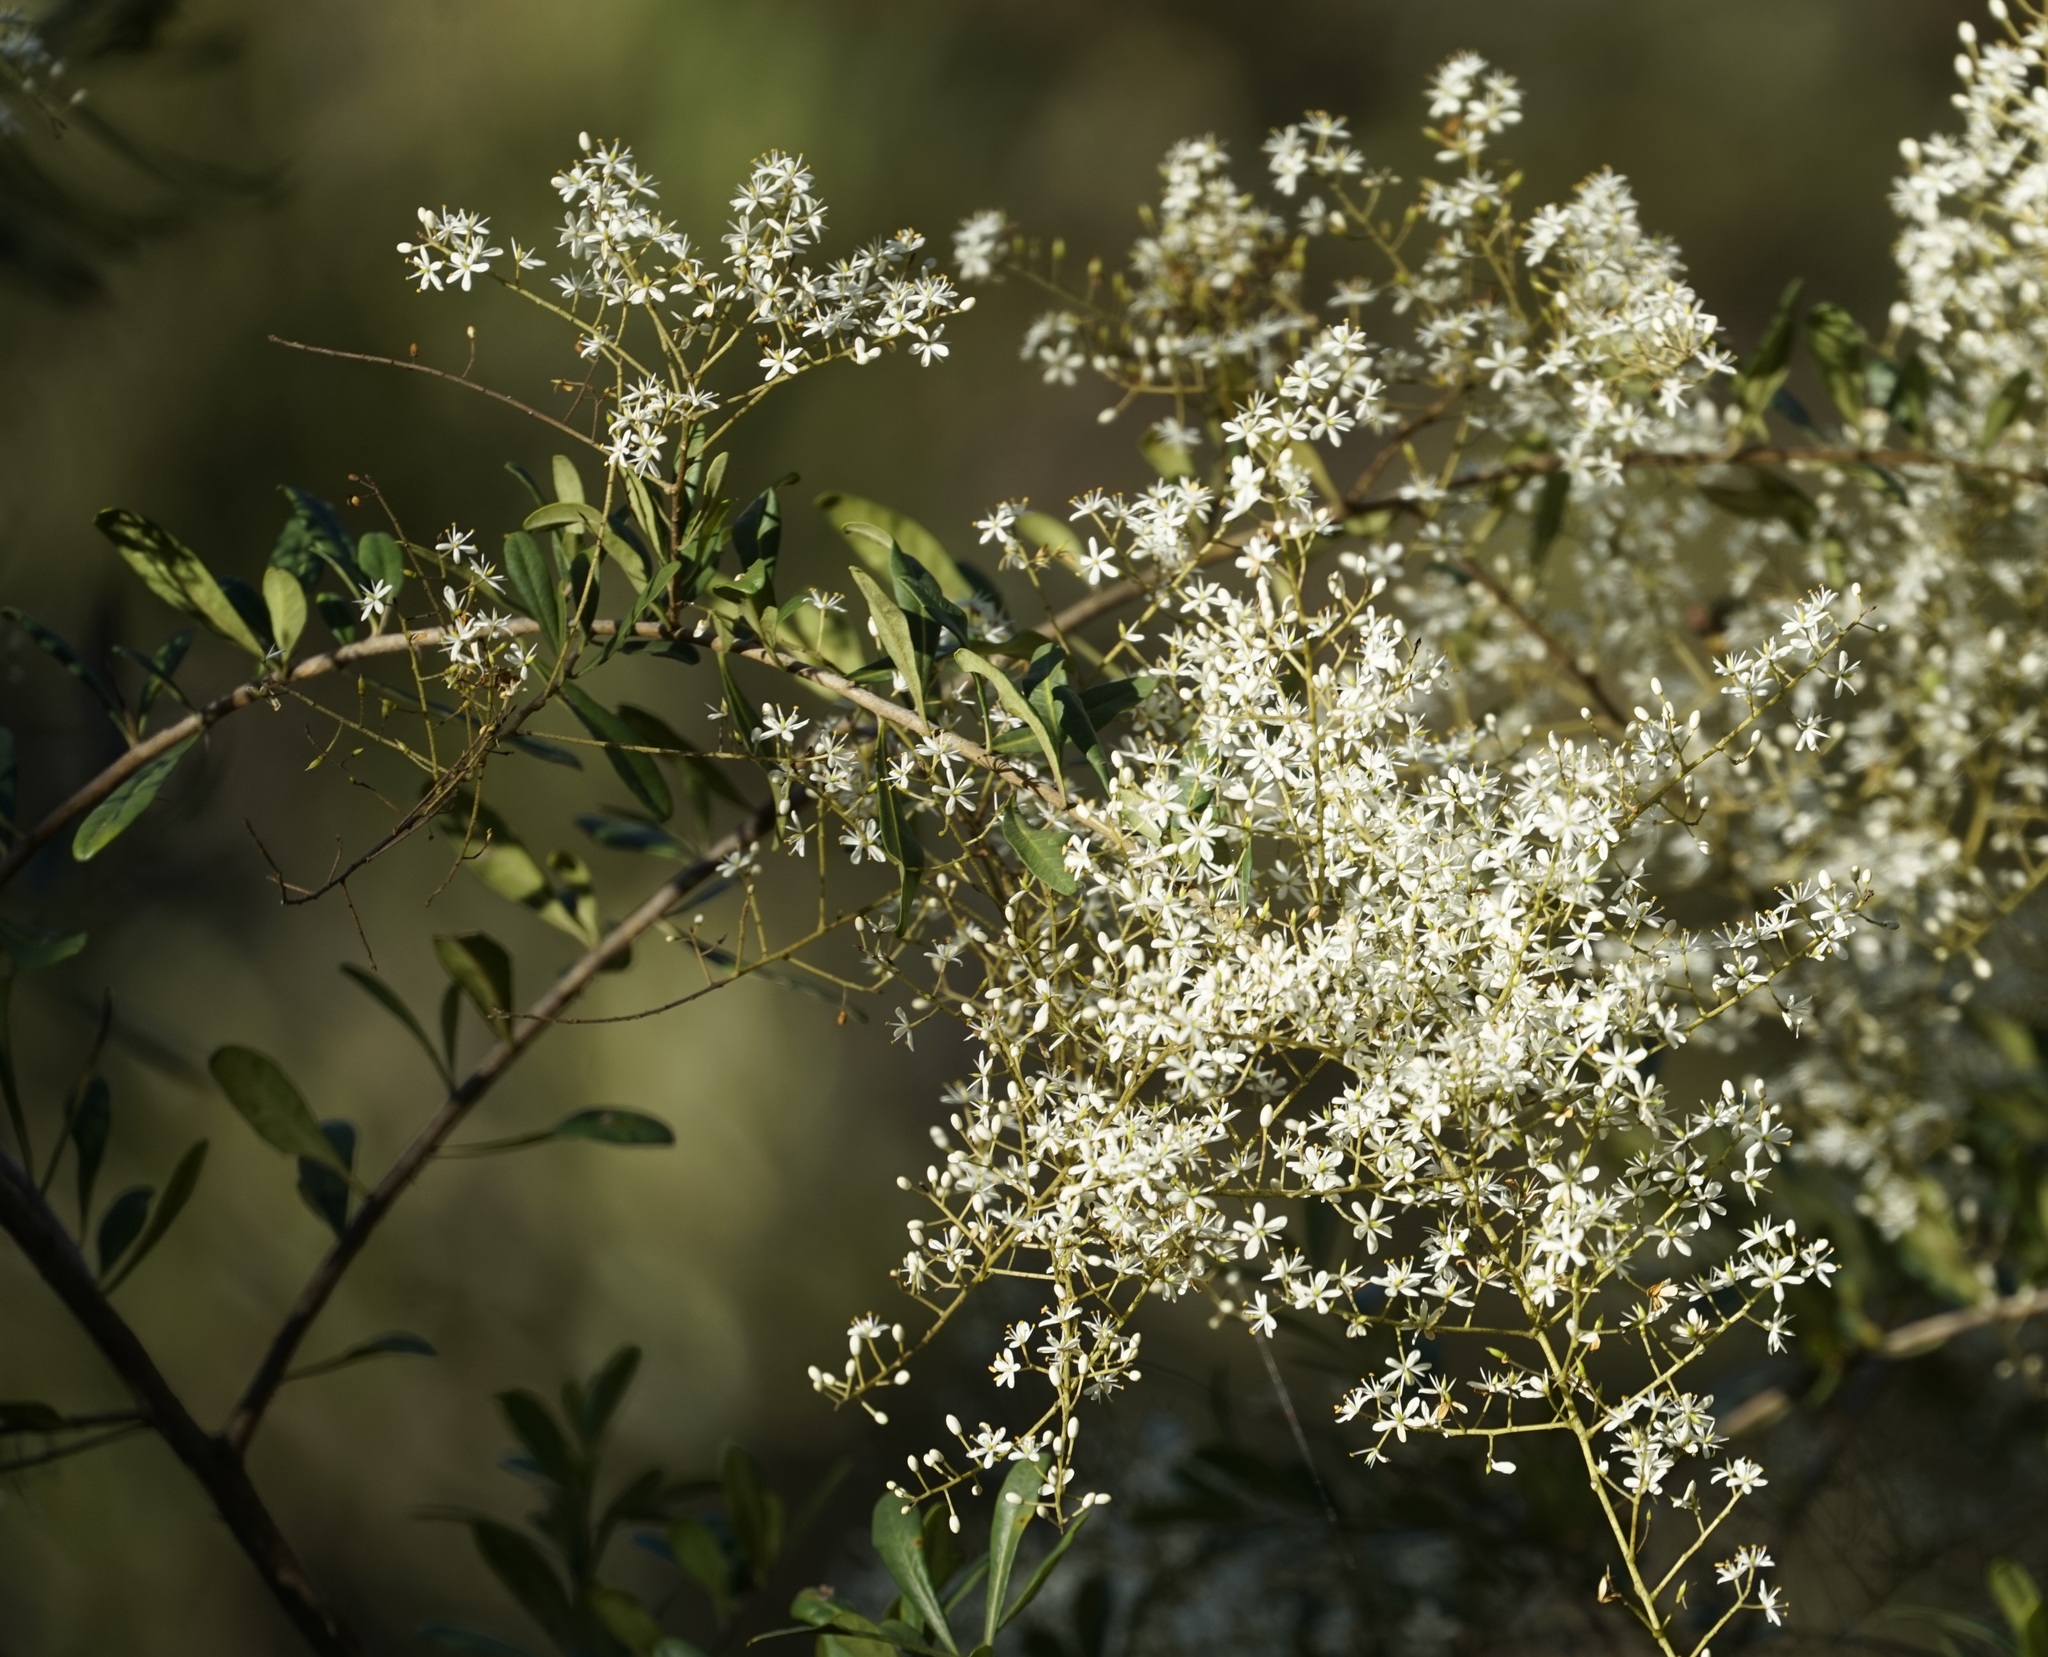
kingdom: Plantae
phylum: Tracheophyta
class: Magnoliopsida
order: Apiales
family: Pittosporaceae
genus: Bursaria
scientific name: Bursaria spinosa
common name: Australian blackthorn
